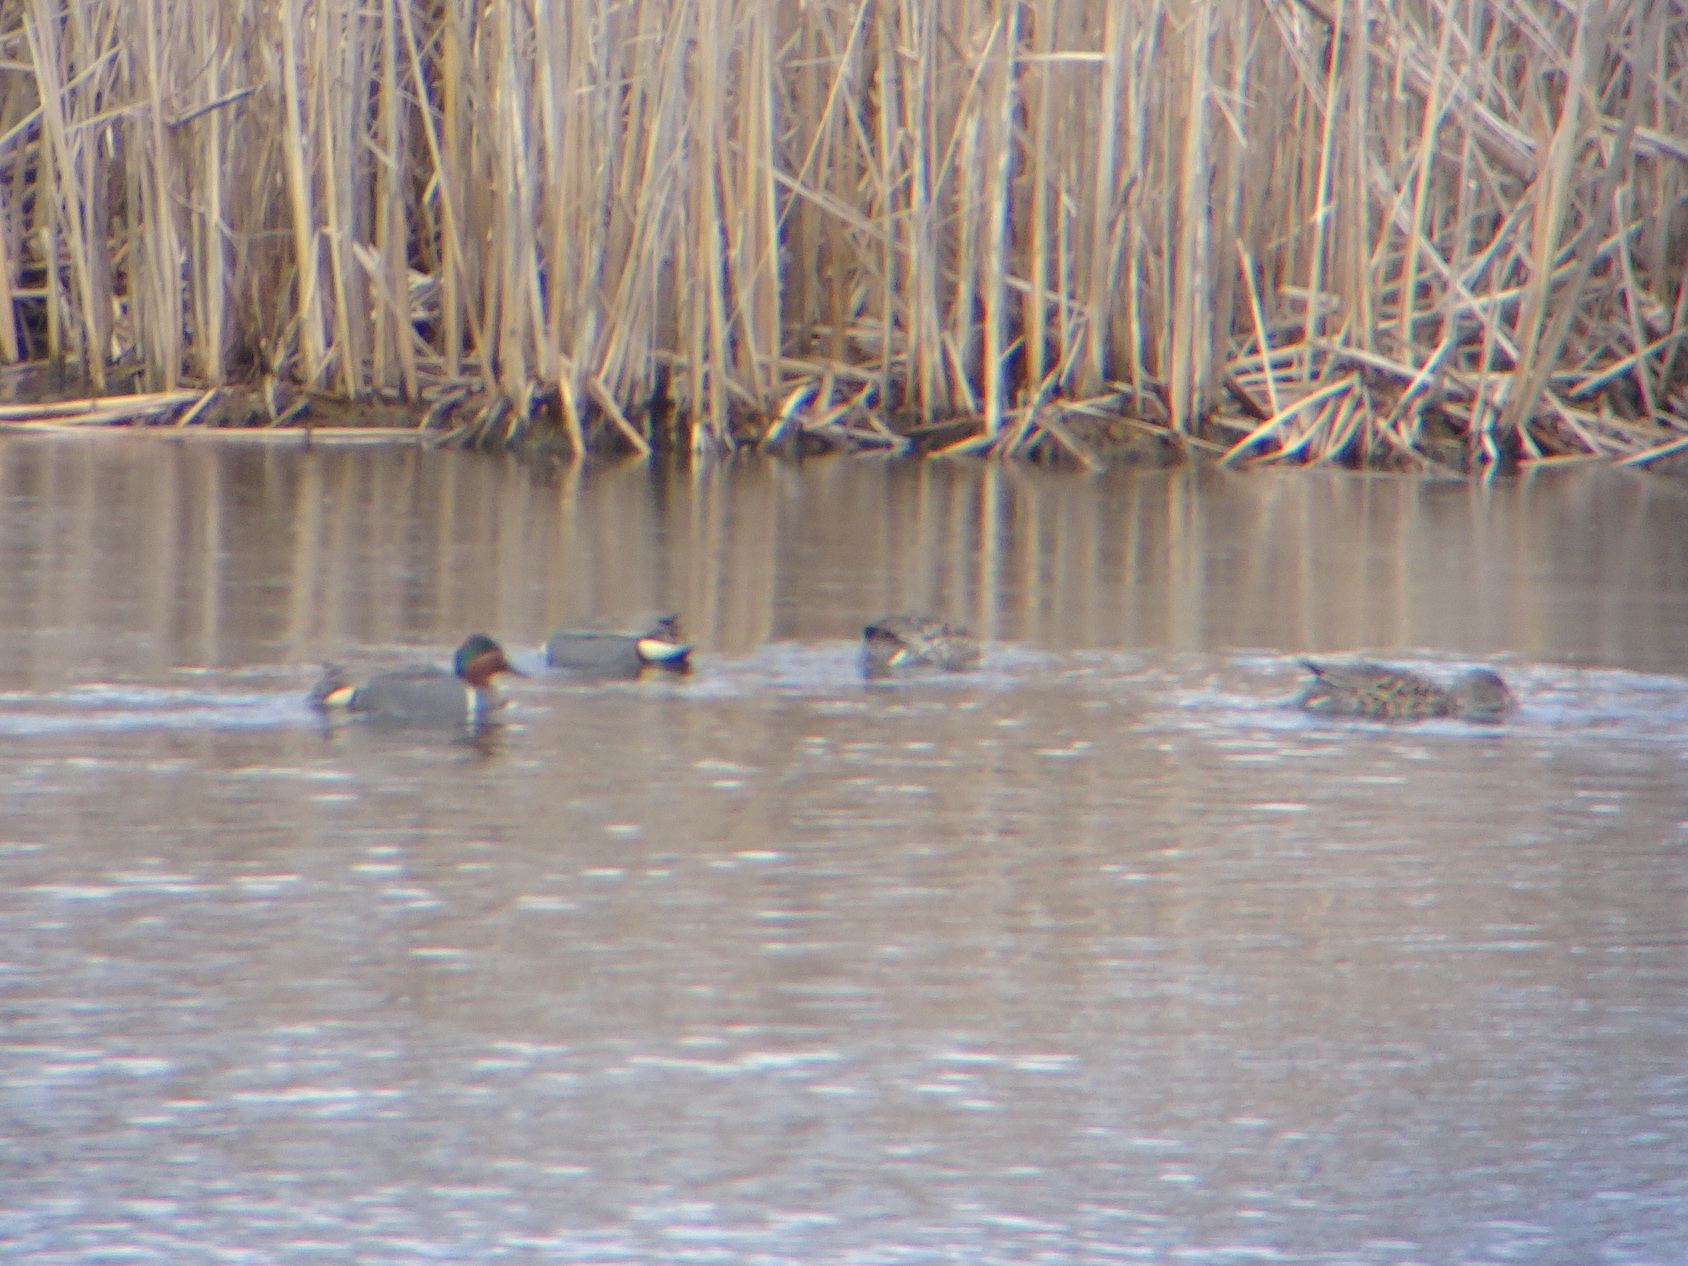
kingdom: Animalia
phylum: Chordata
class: Aves
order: Anseriformes
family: Anatidae
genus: Anas
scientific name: Anas crecca
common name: Eurasian teal
